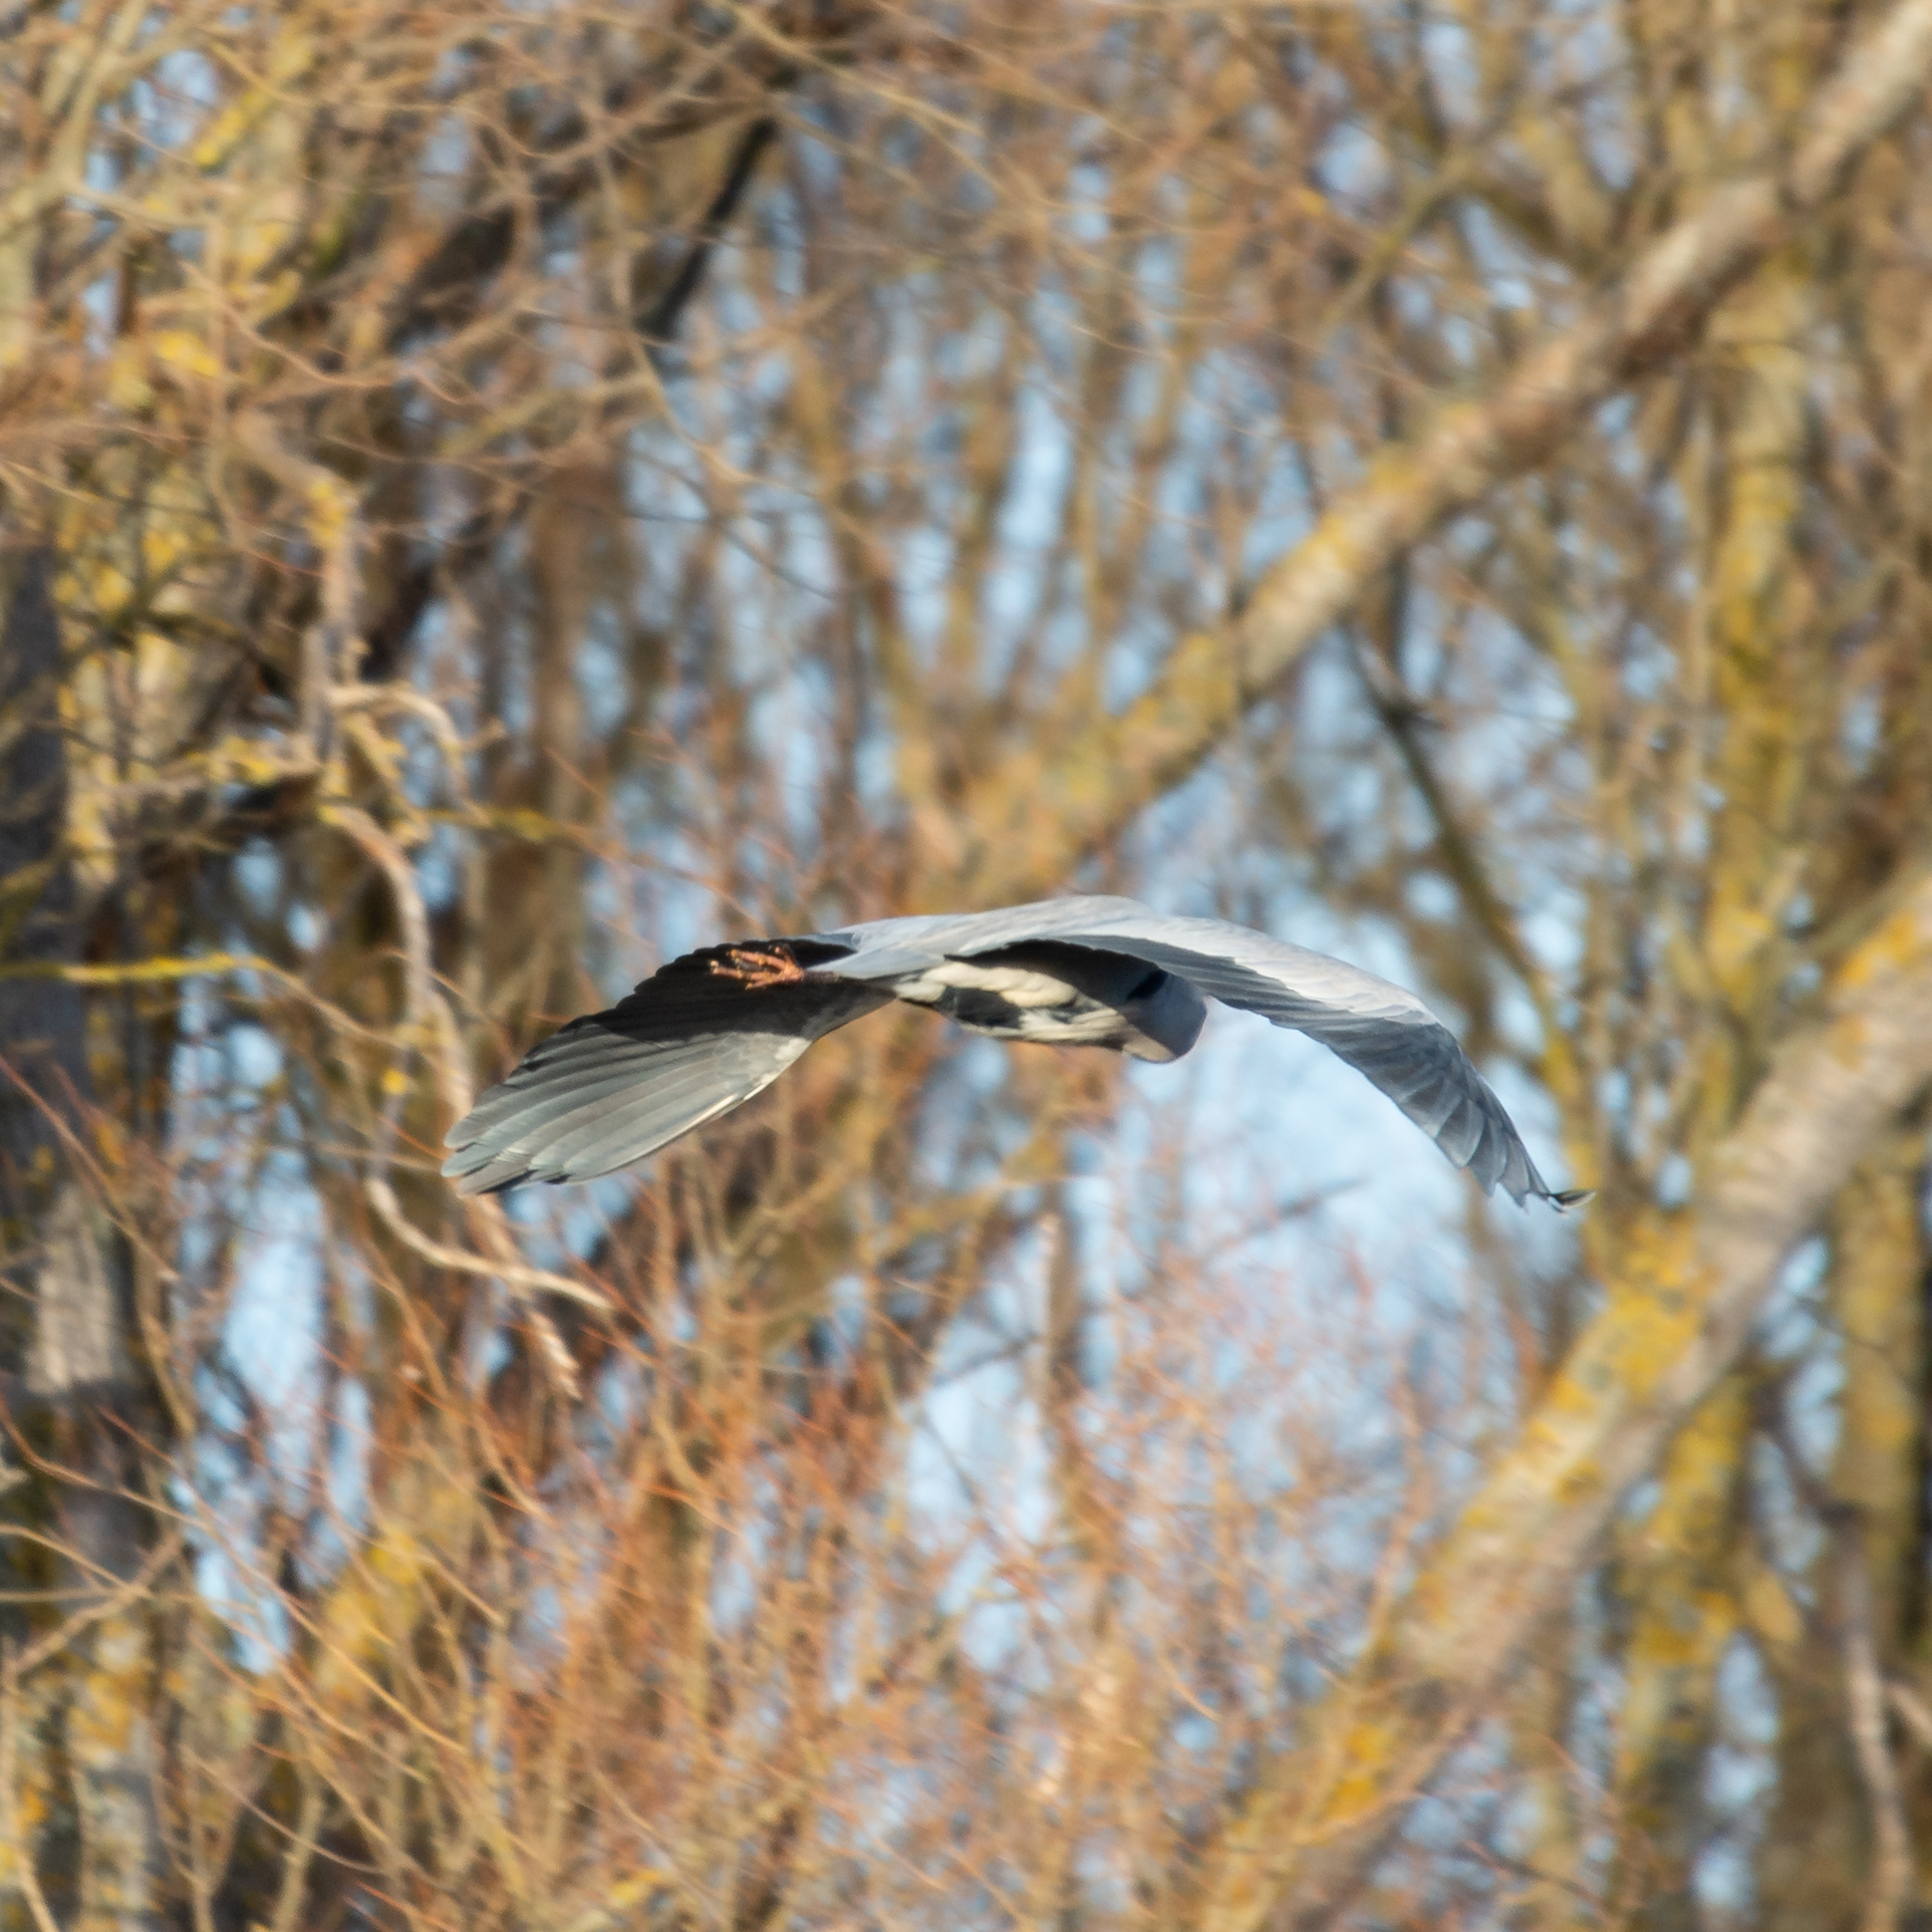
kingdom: Animalia
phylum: Chordata
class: Aves
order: Pelecaniformes
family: Ardeidae
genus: Ardea
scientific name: Ardea cinerea
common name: Grey heron
